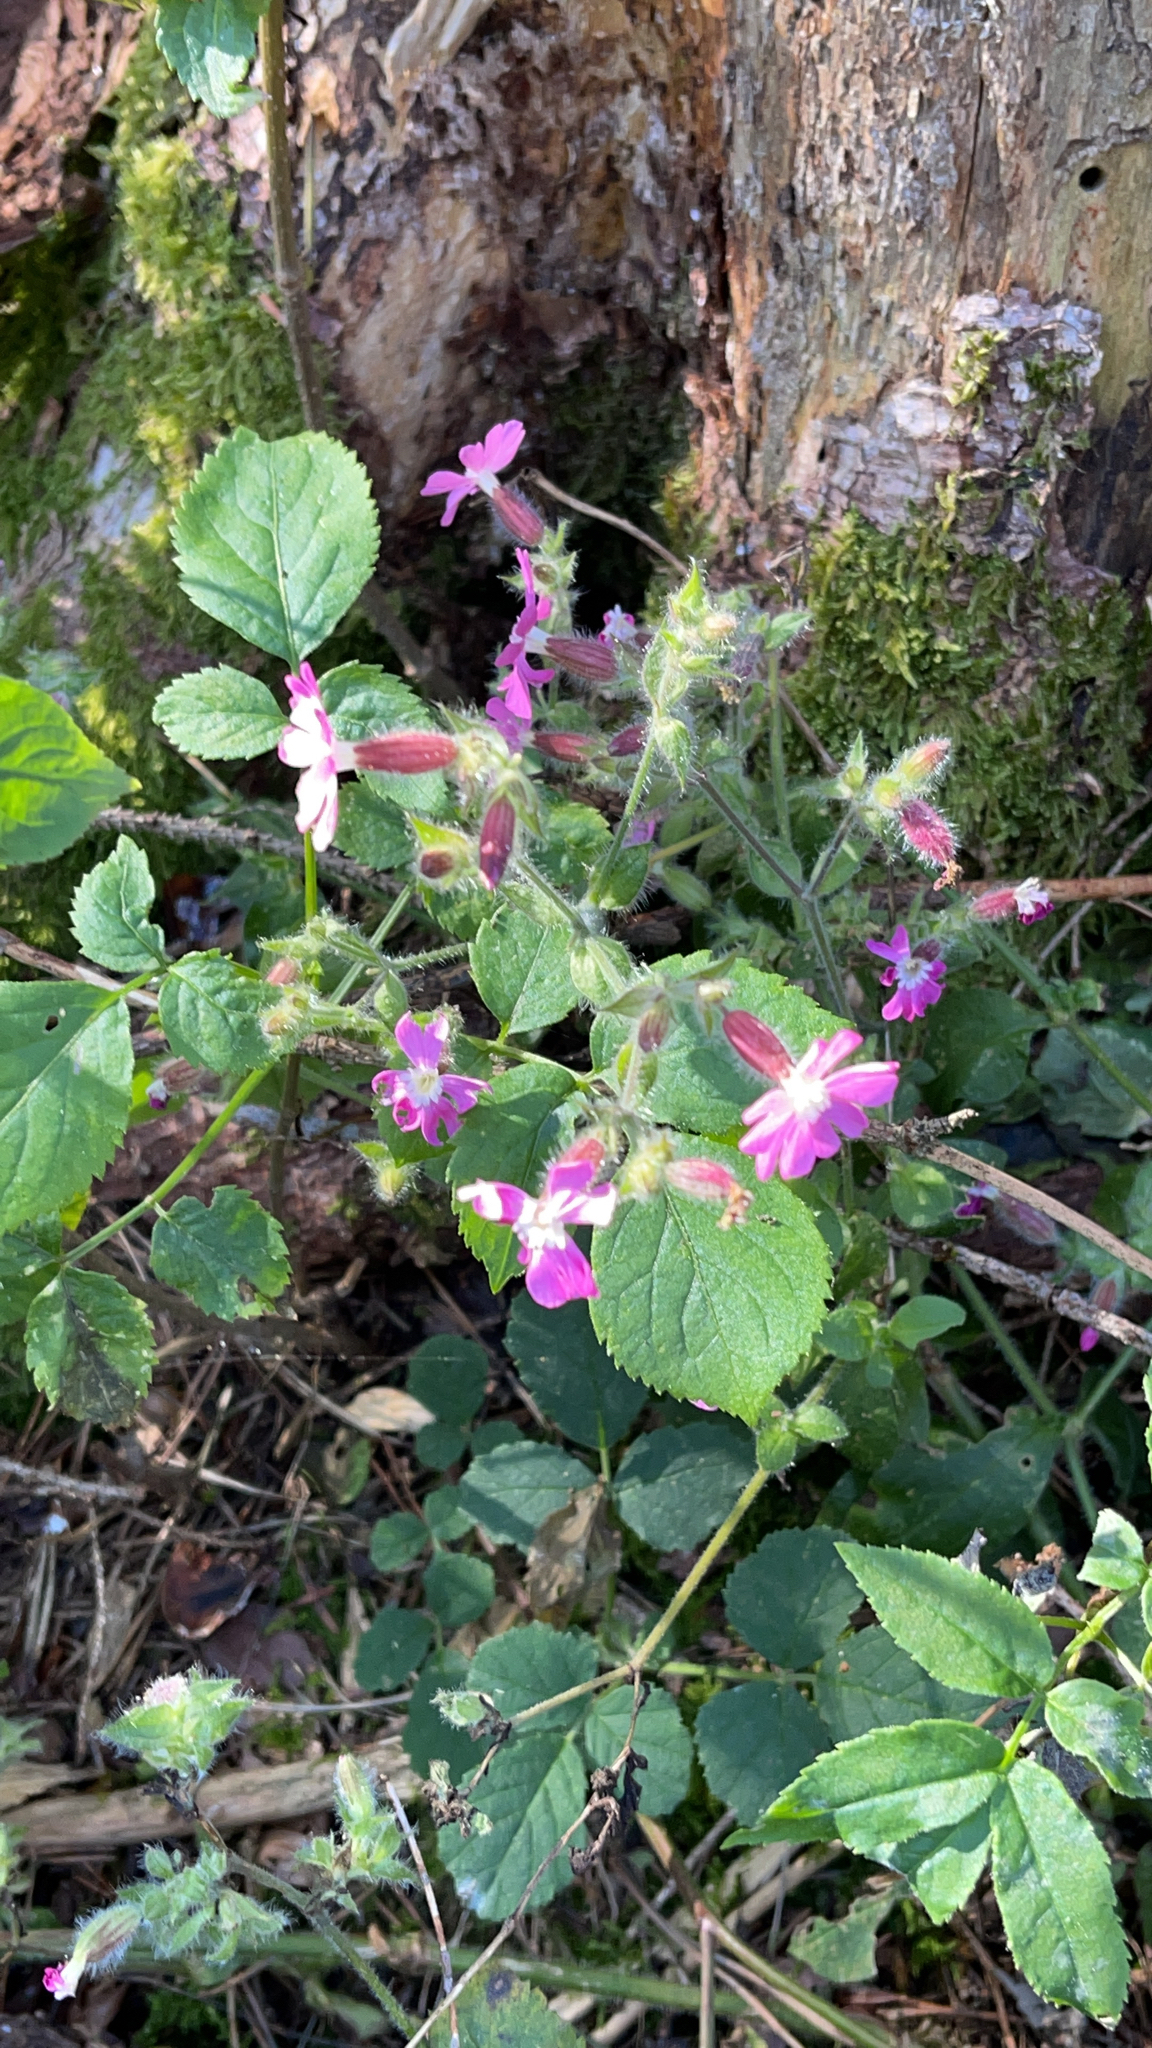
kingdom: Plantae
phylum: Tracheophyta
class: Magnoliopsida
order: Caryophyllales
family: Caryophyllaceae
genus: Silene
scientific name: Silene dioica
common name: Red campion
